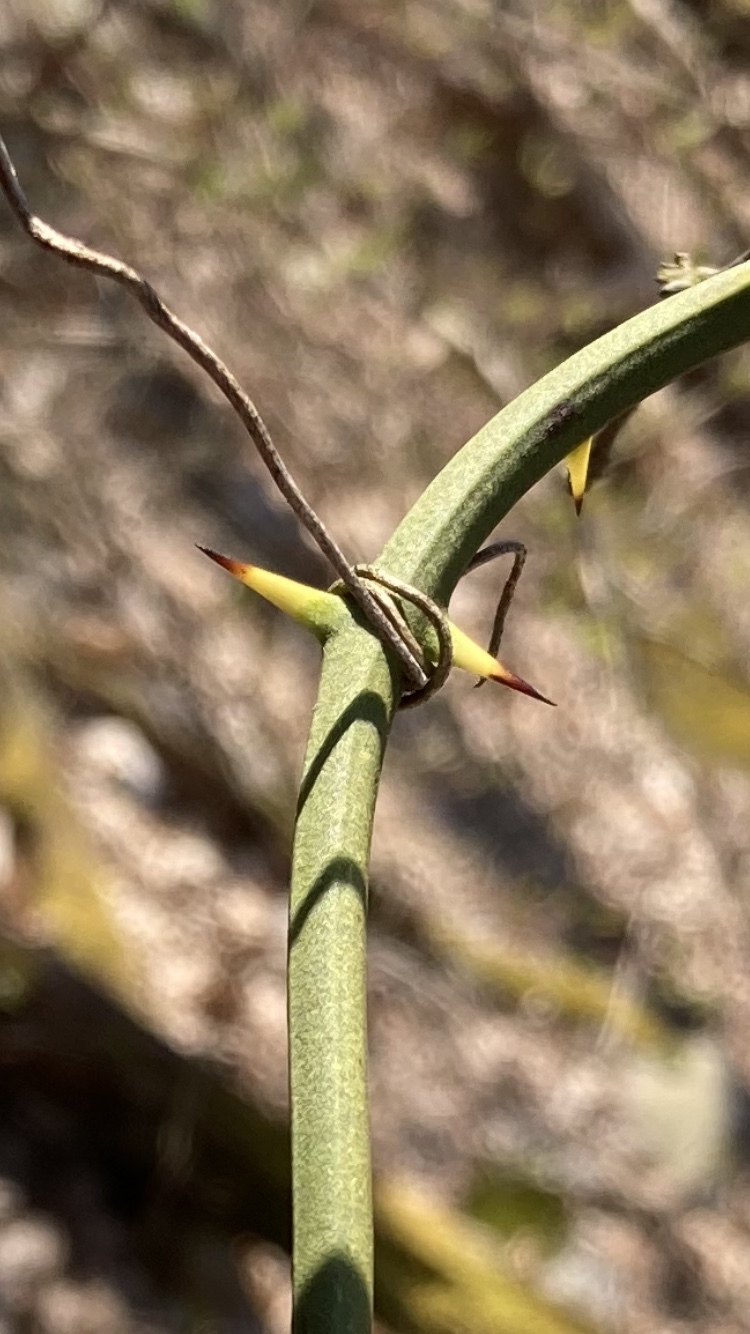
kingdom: Plantae
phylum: Tracheophyta
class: Liliopsida
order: Liliales
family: Smilacaceae
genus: Smilax
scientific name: Smilax rotundifolia
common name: Bullbriar
